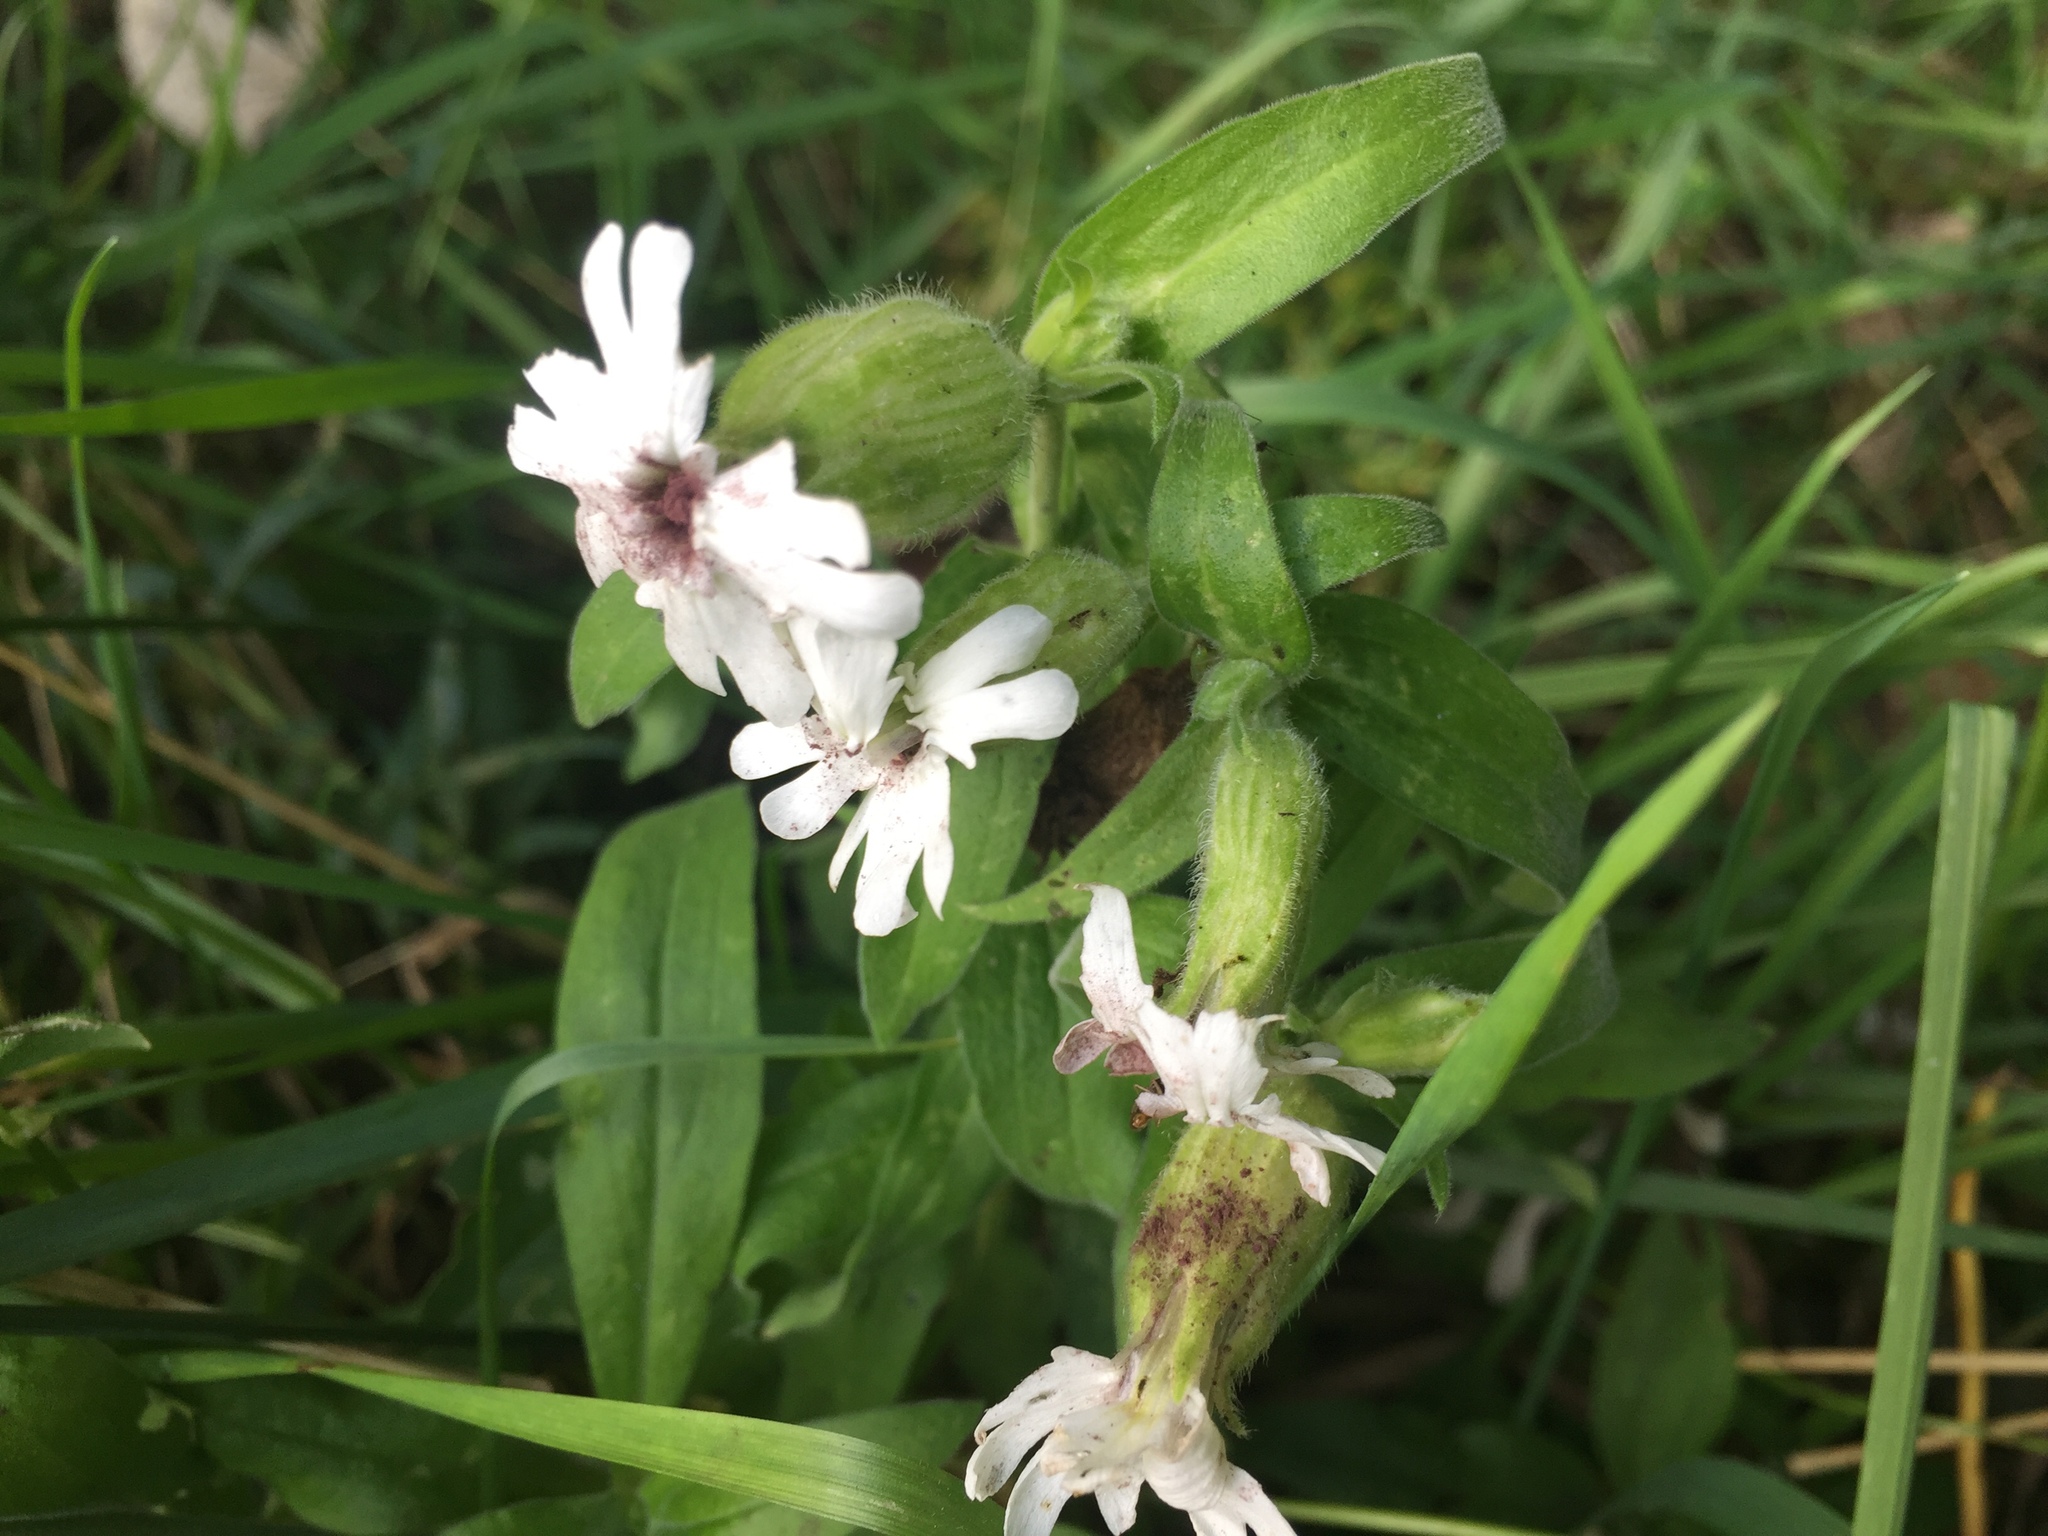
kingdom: Plantae
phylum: Tracheophyta
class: Magnoliopsida
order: Caryophyllales
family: Caryophyllaceae
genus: Silene
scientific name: Silene latifolia
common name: White campion
